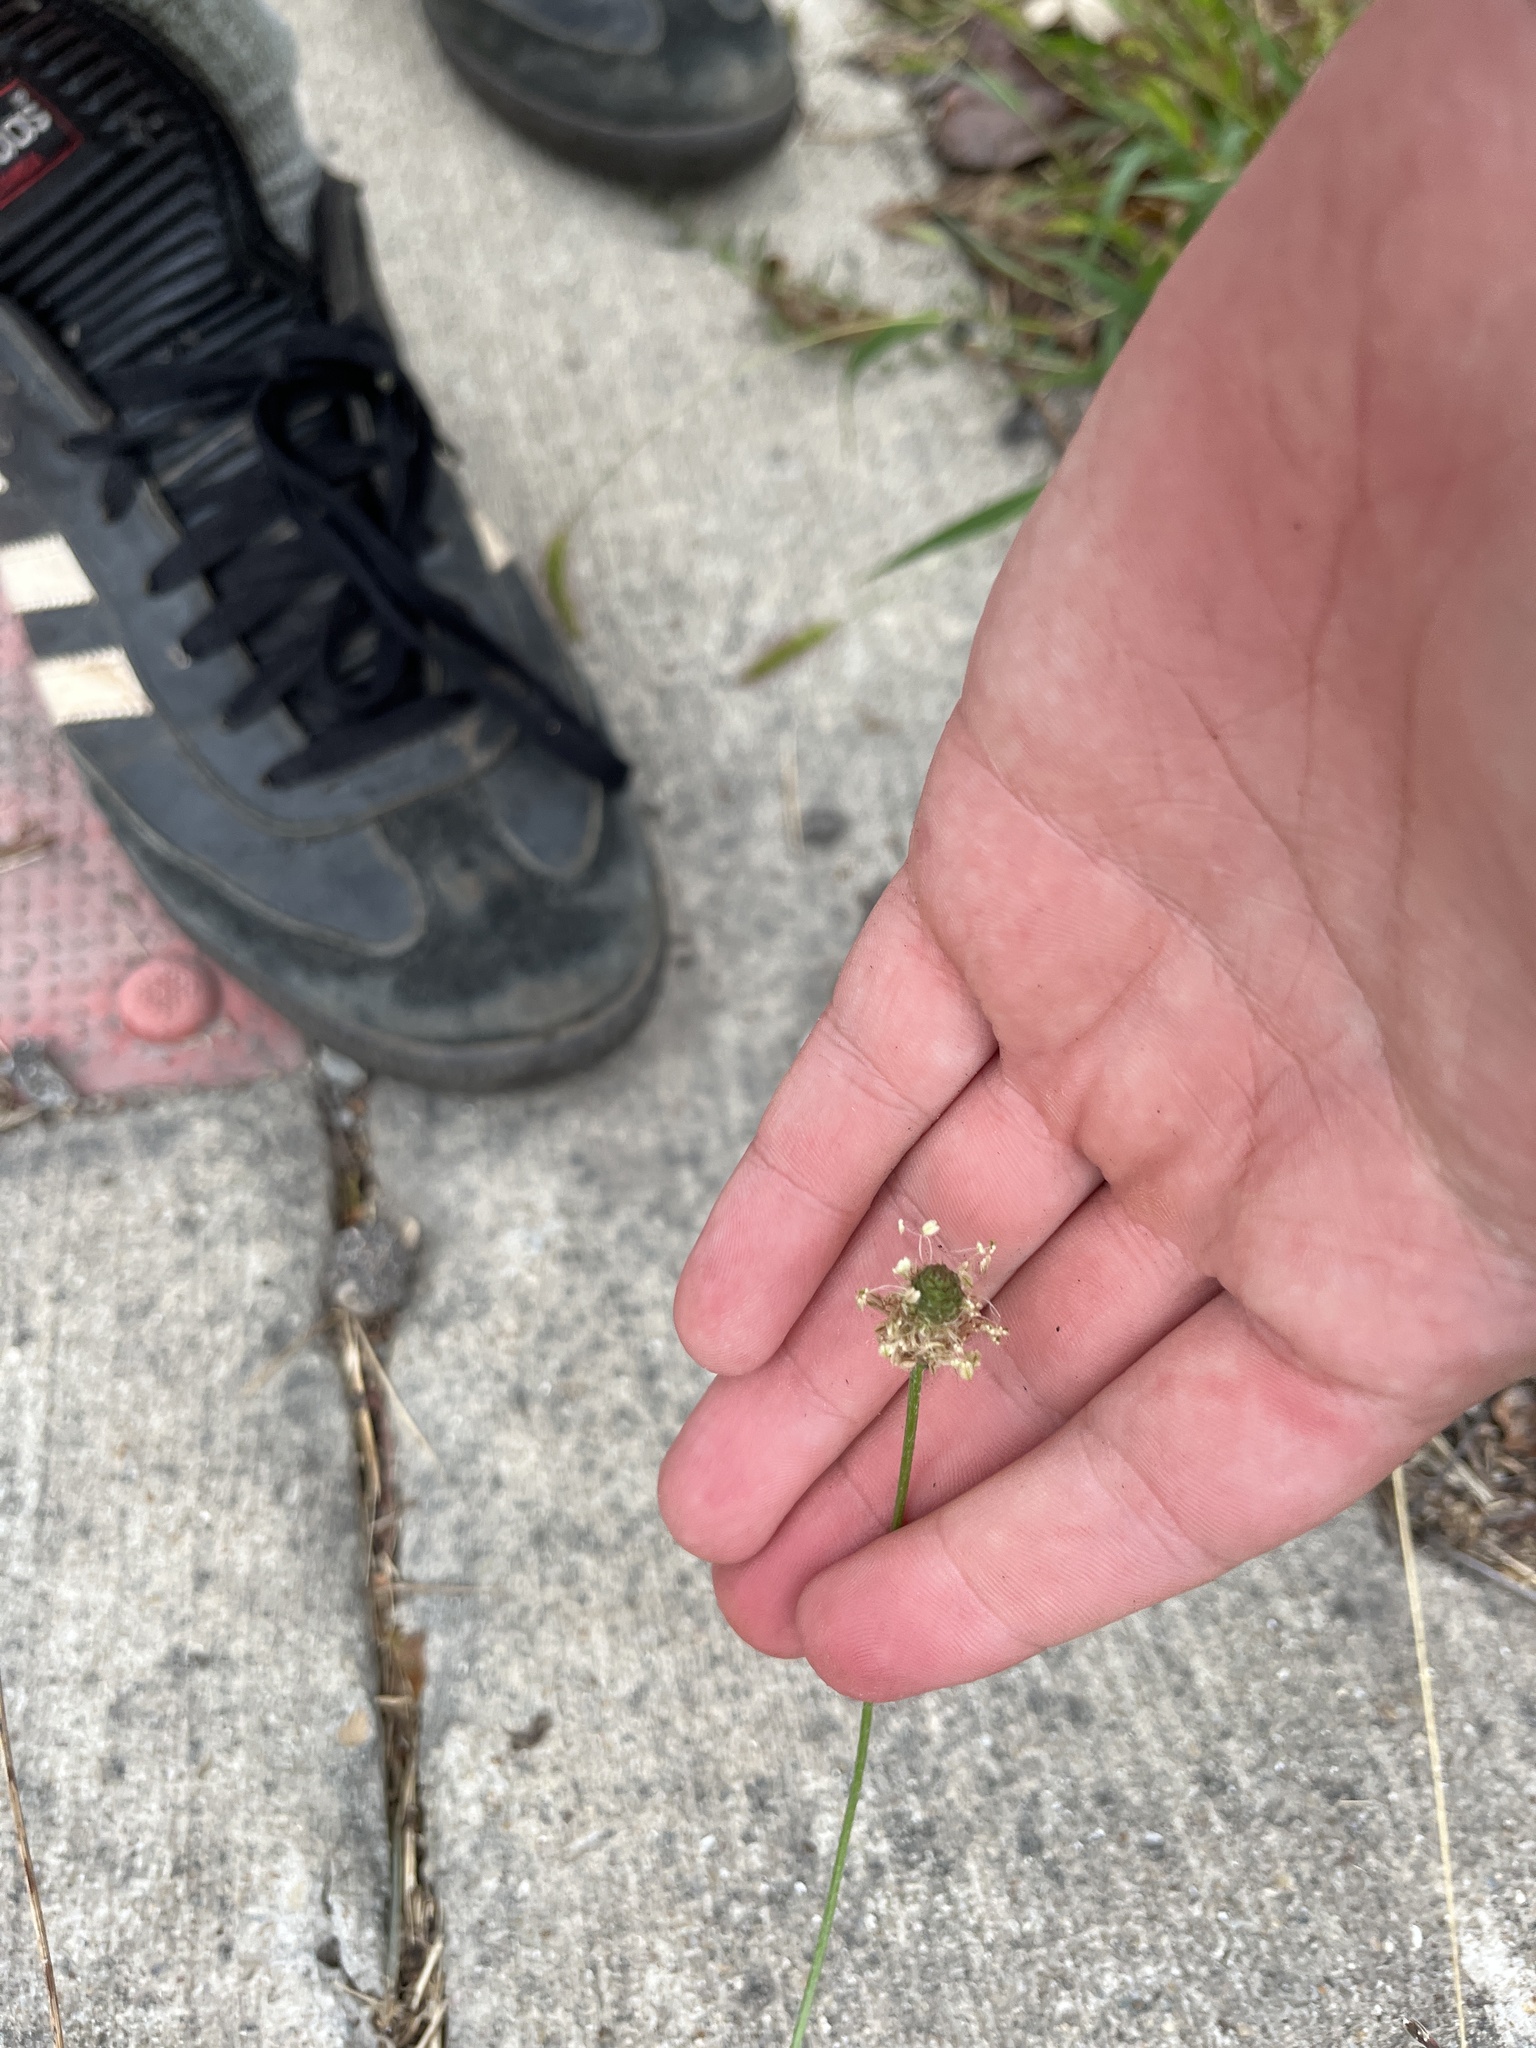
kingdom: Plantae
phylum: Tracheophyta
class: Magnoliopsida
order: Lamiales
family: Plantaginaceae
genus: Plantago
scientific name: Plantago lanceolata
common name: Ribwort plantain
